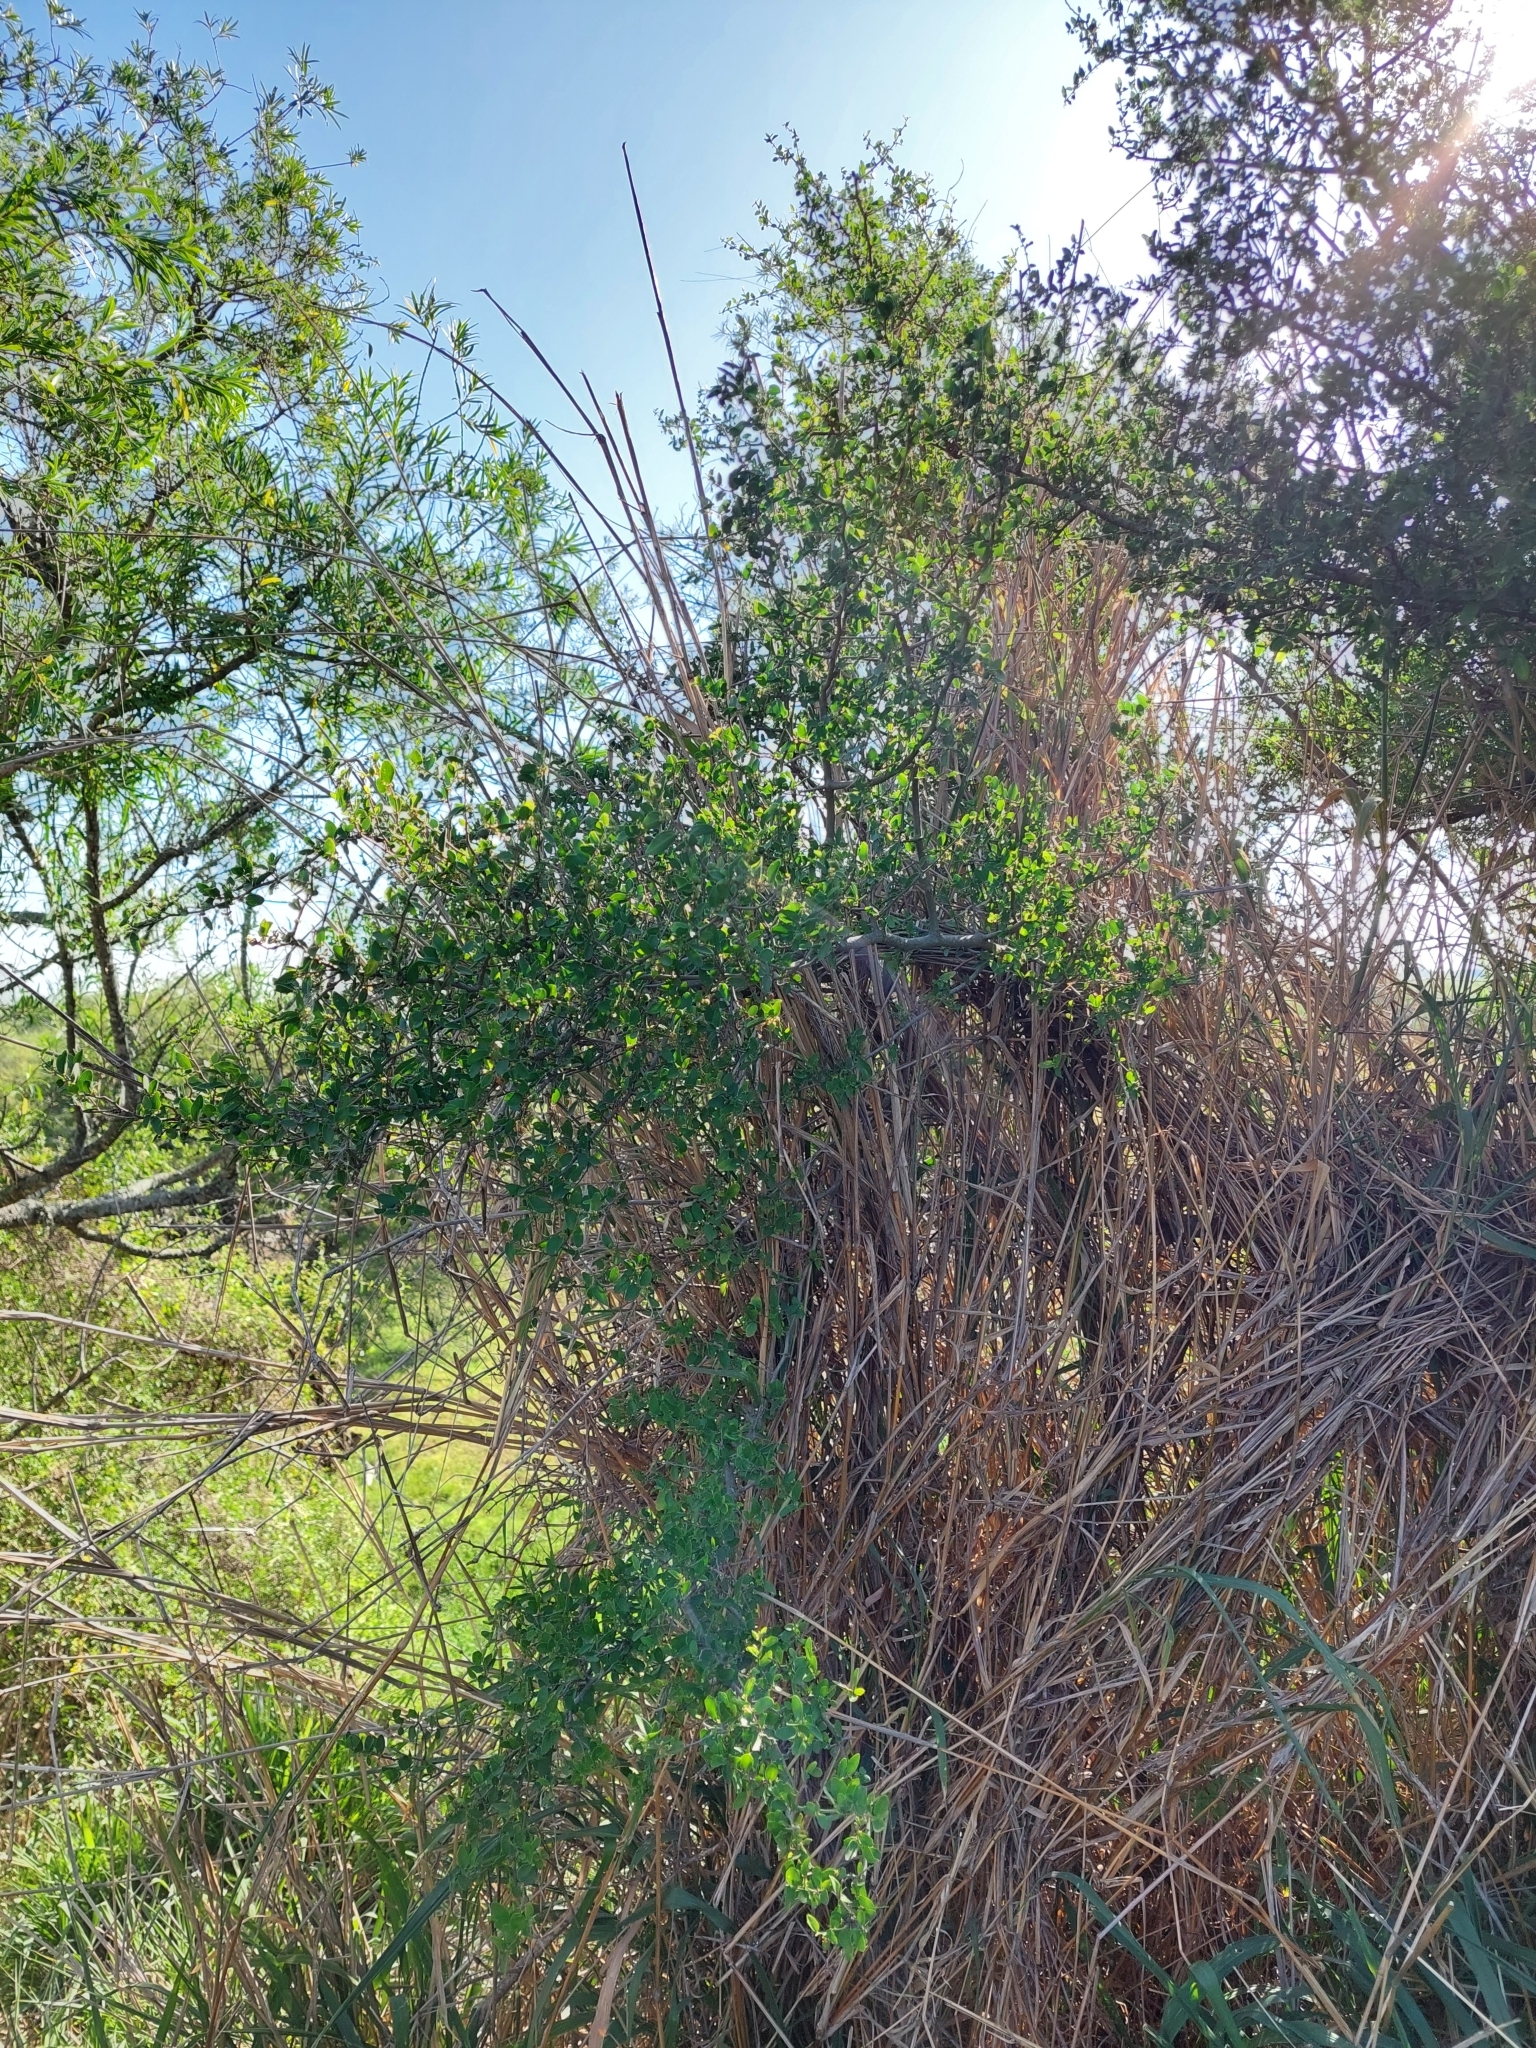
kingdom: Plantae
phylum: Tracheophyta
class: Magnoliopsida
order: Rosales
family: Cannabaceae
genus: Celtis
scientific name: Celtis pallida
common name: Desert hackberry
